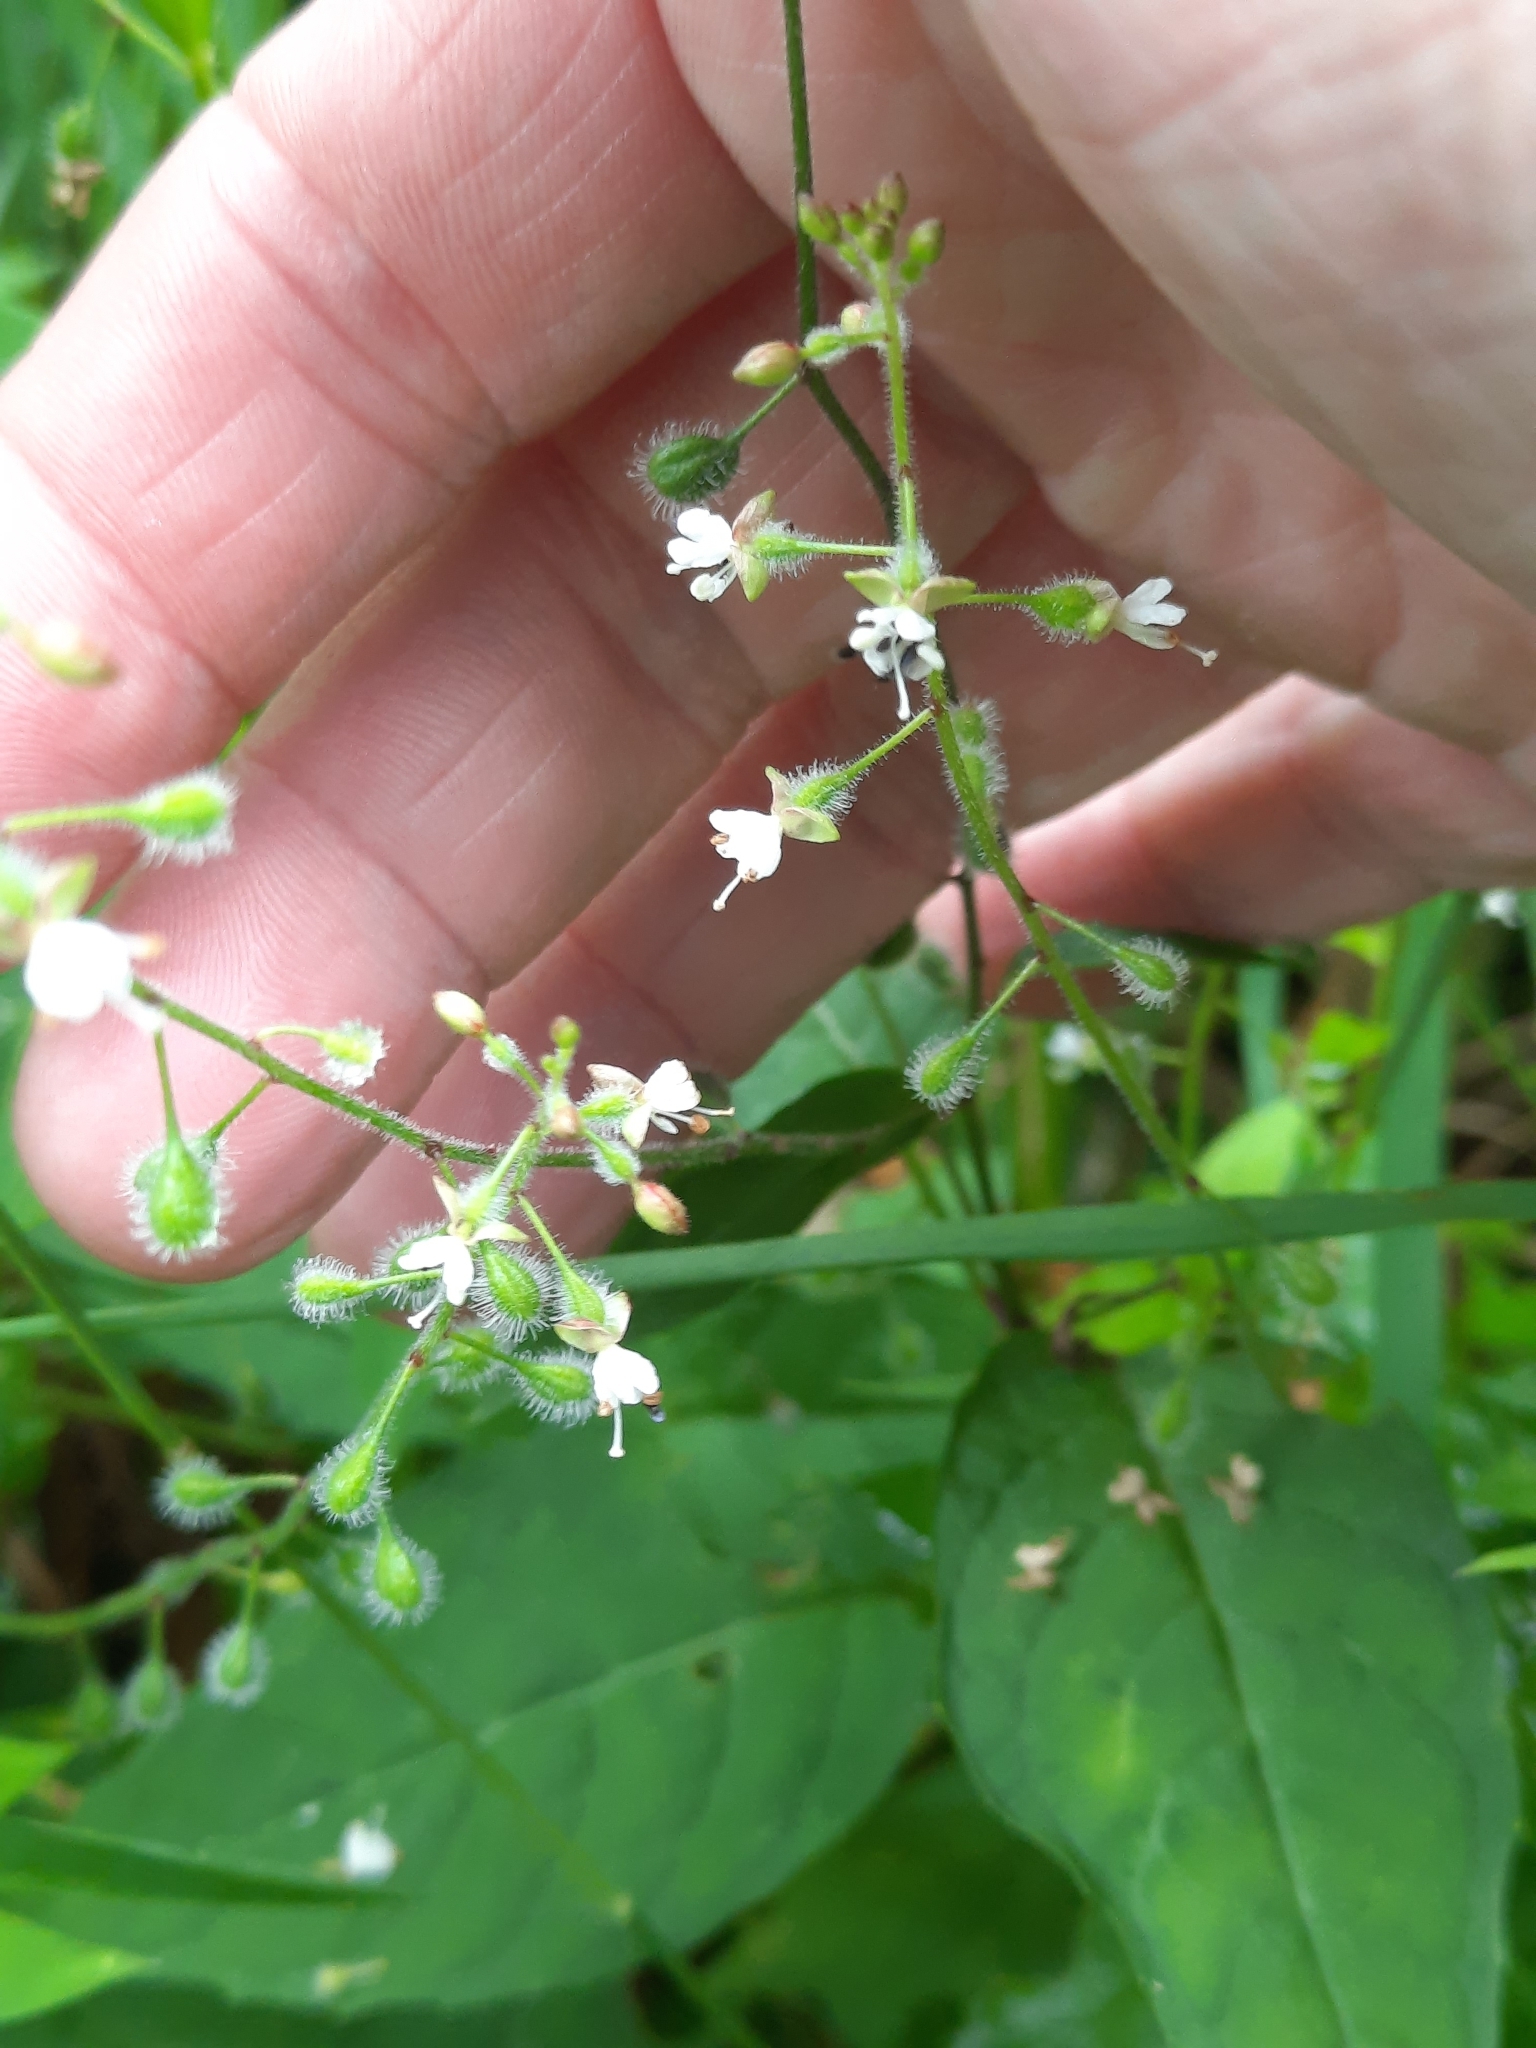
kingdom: Plantae
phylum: Tracheophyta
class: Magnoliopsida
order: Myrtales
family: Onagraceae
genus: Circaea
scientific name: Circaea canadensis
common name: Broad-leaved enchanter's nightshade
